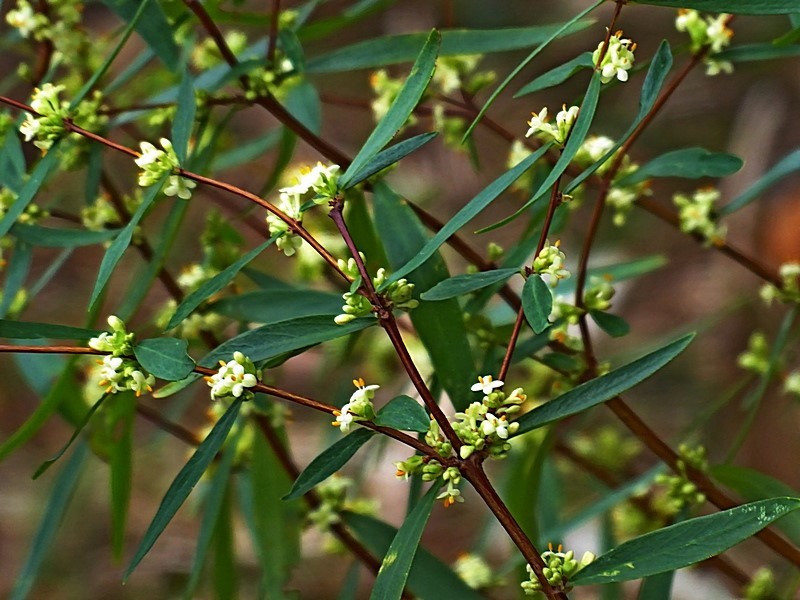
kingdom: Plantae
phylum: Tracheophyta
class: Magnoliopsida
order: Malvales
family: Thymelaeaceae
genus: Pimelea
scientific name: Pimelea axiflora
